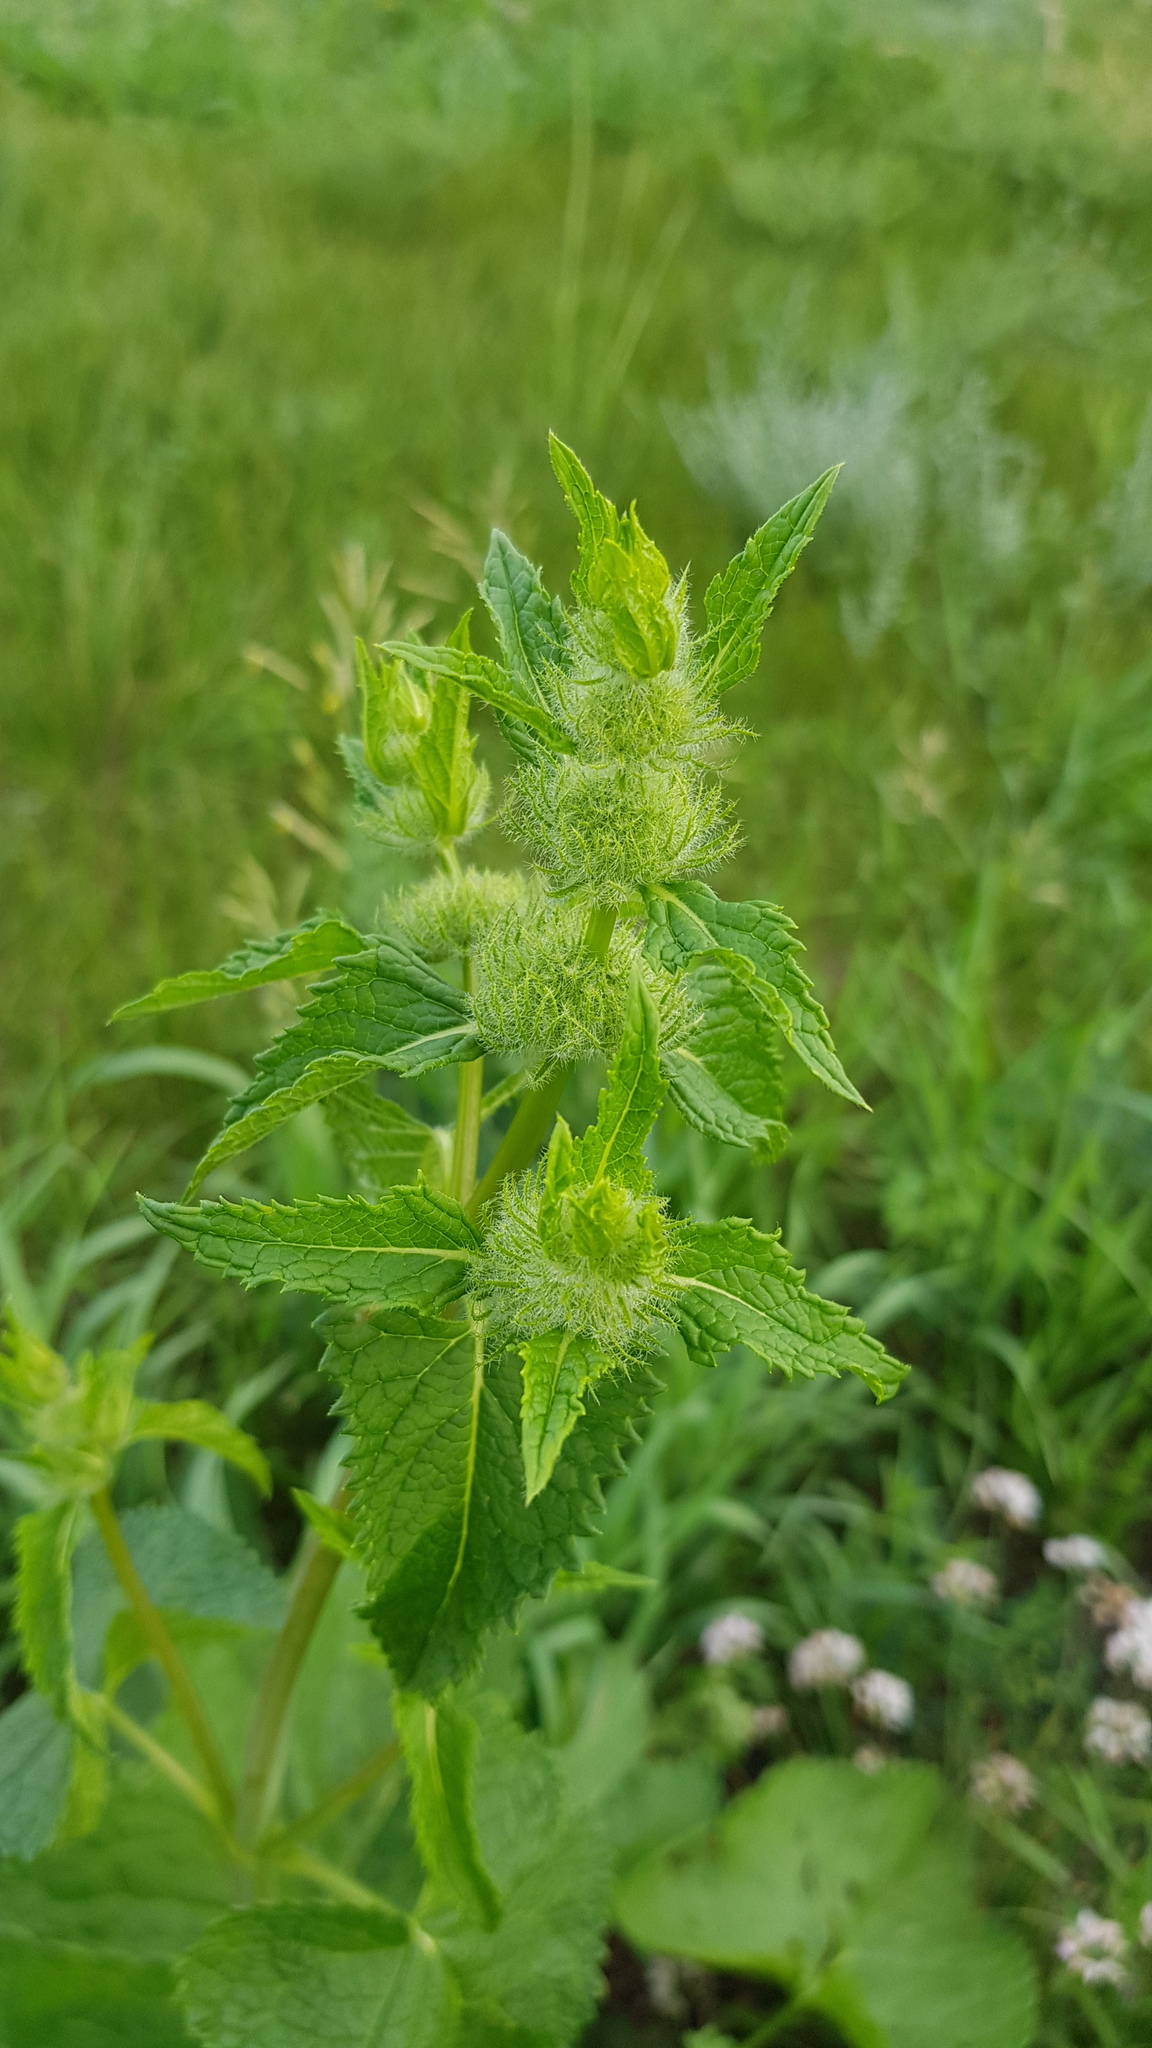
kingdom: Plantae
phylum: Tracheophyta
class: Magnoliopsida
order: Lamiales
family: Lamiaceae
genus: Phlomoides
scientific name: Phlomoides tuberosa
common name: Tuberous jerusalem sage
